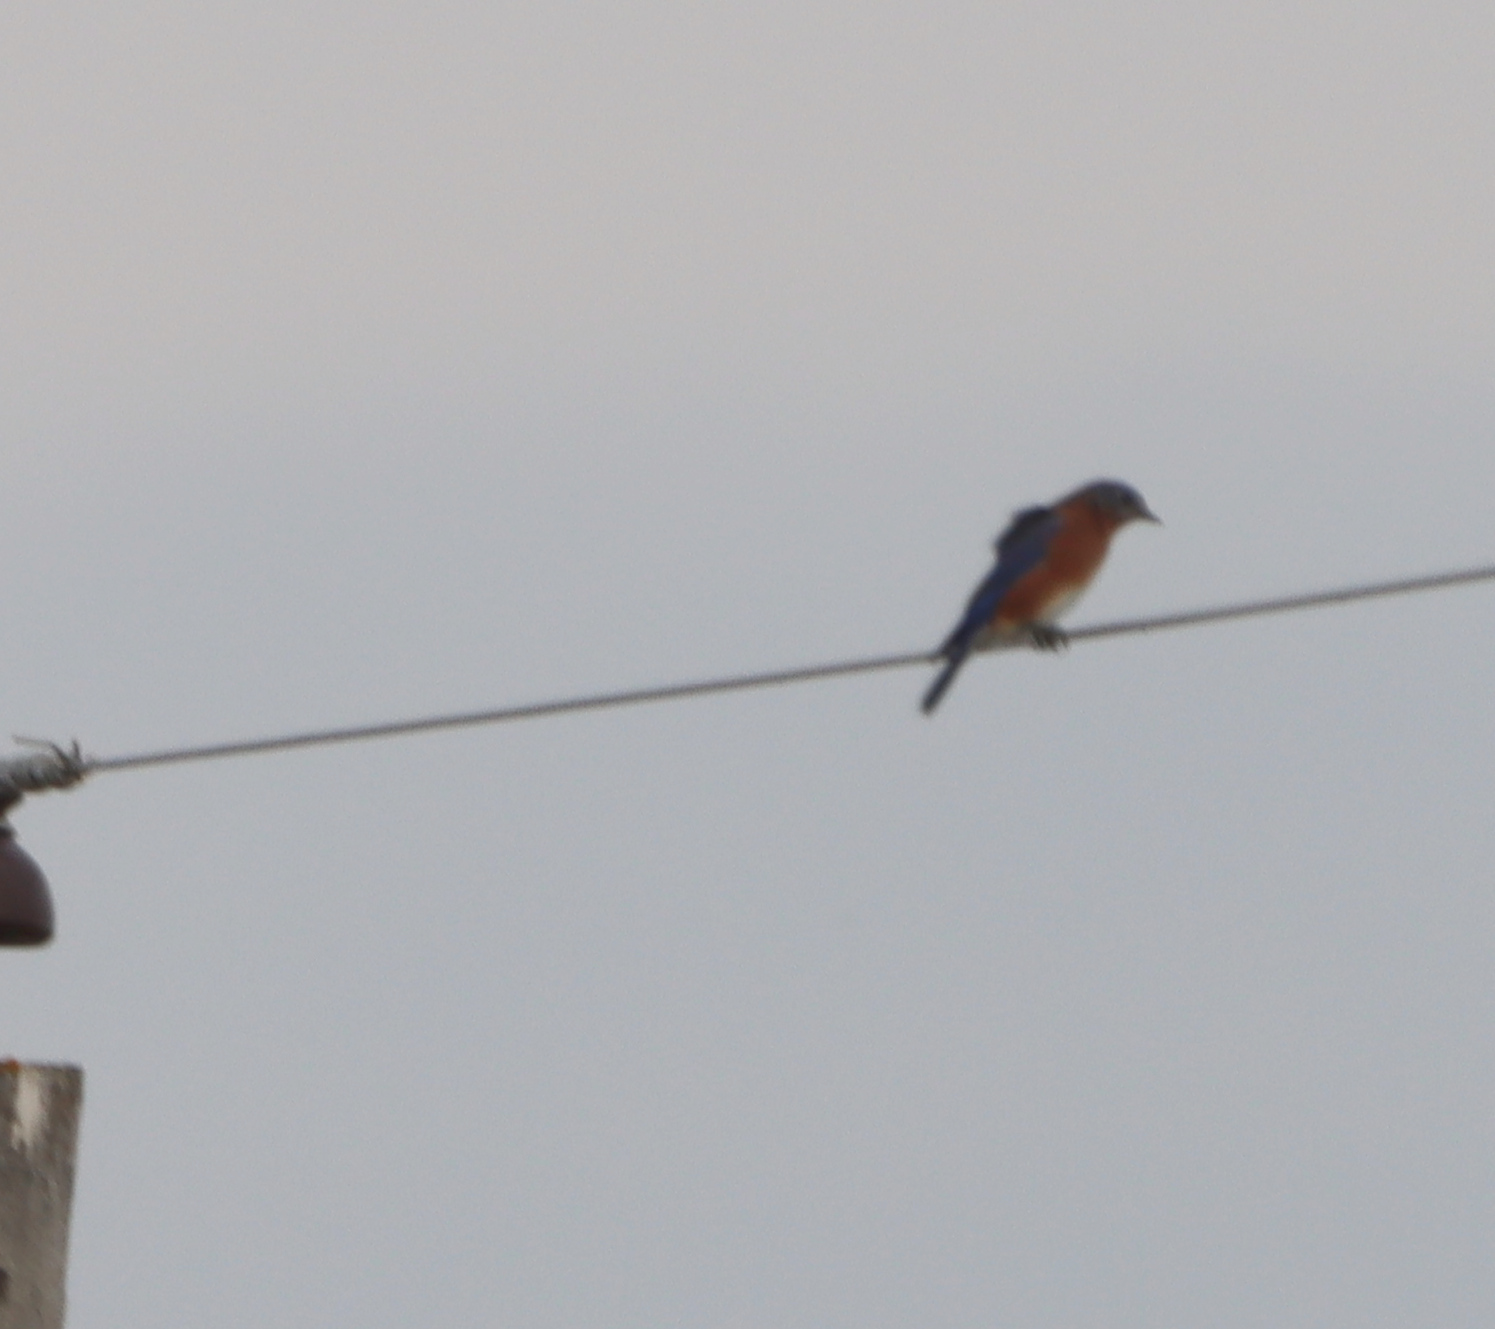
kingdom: Animalia
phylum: Chordata
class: Aves
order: Passeriformes
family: Turdidae
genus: Sialia
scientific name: Sialia sialis
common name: Eastern bluebird
